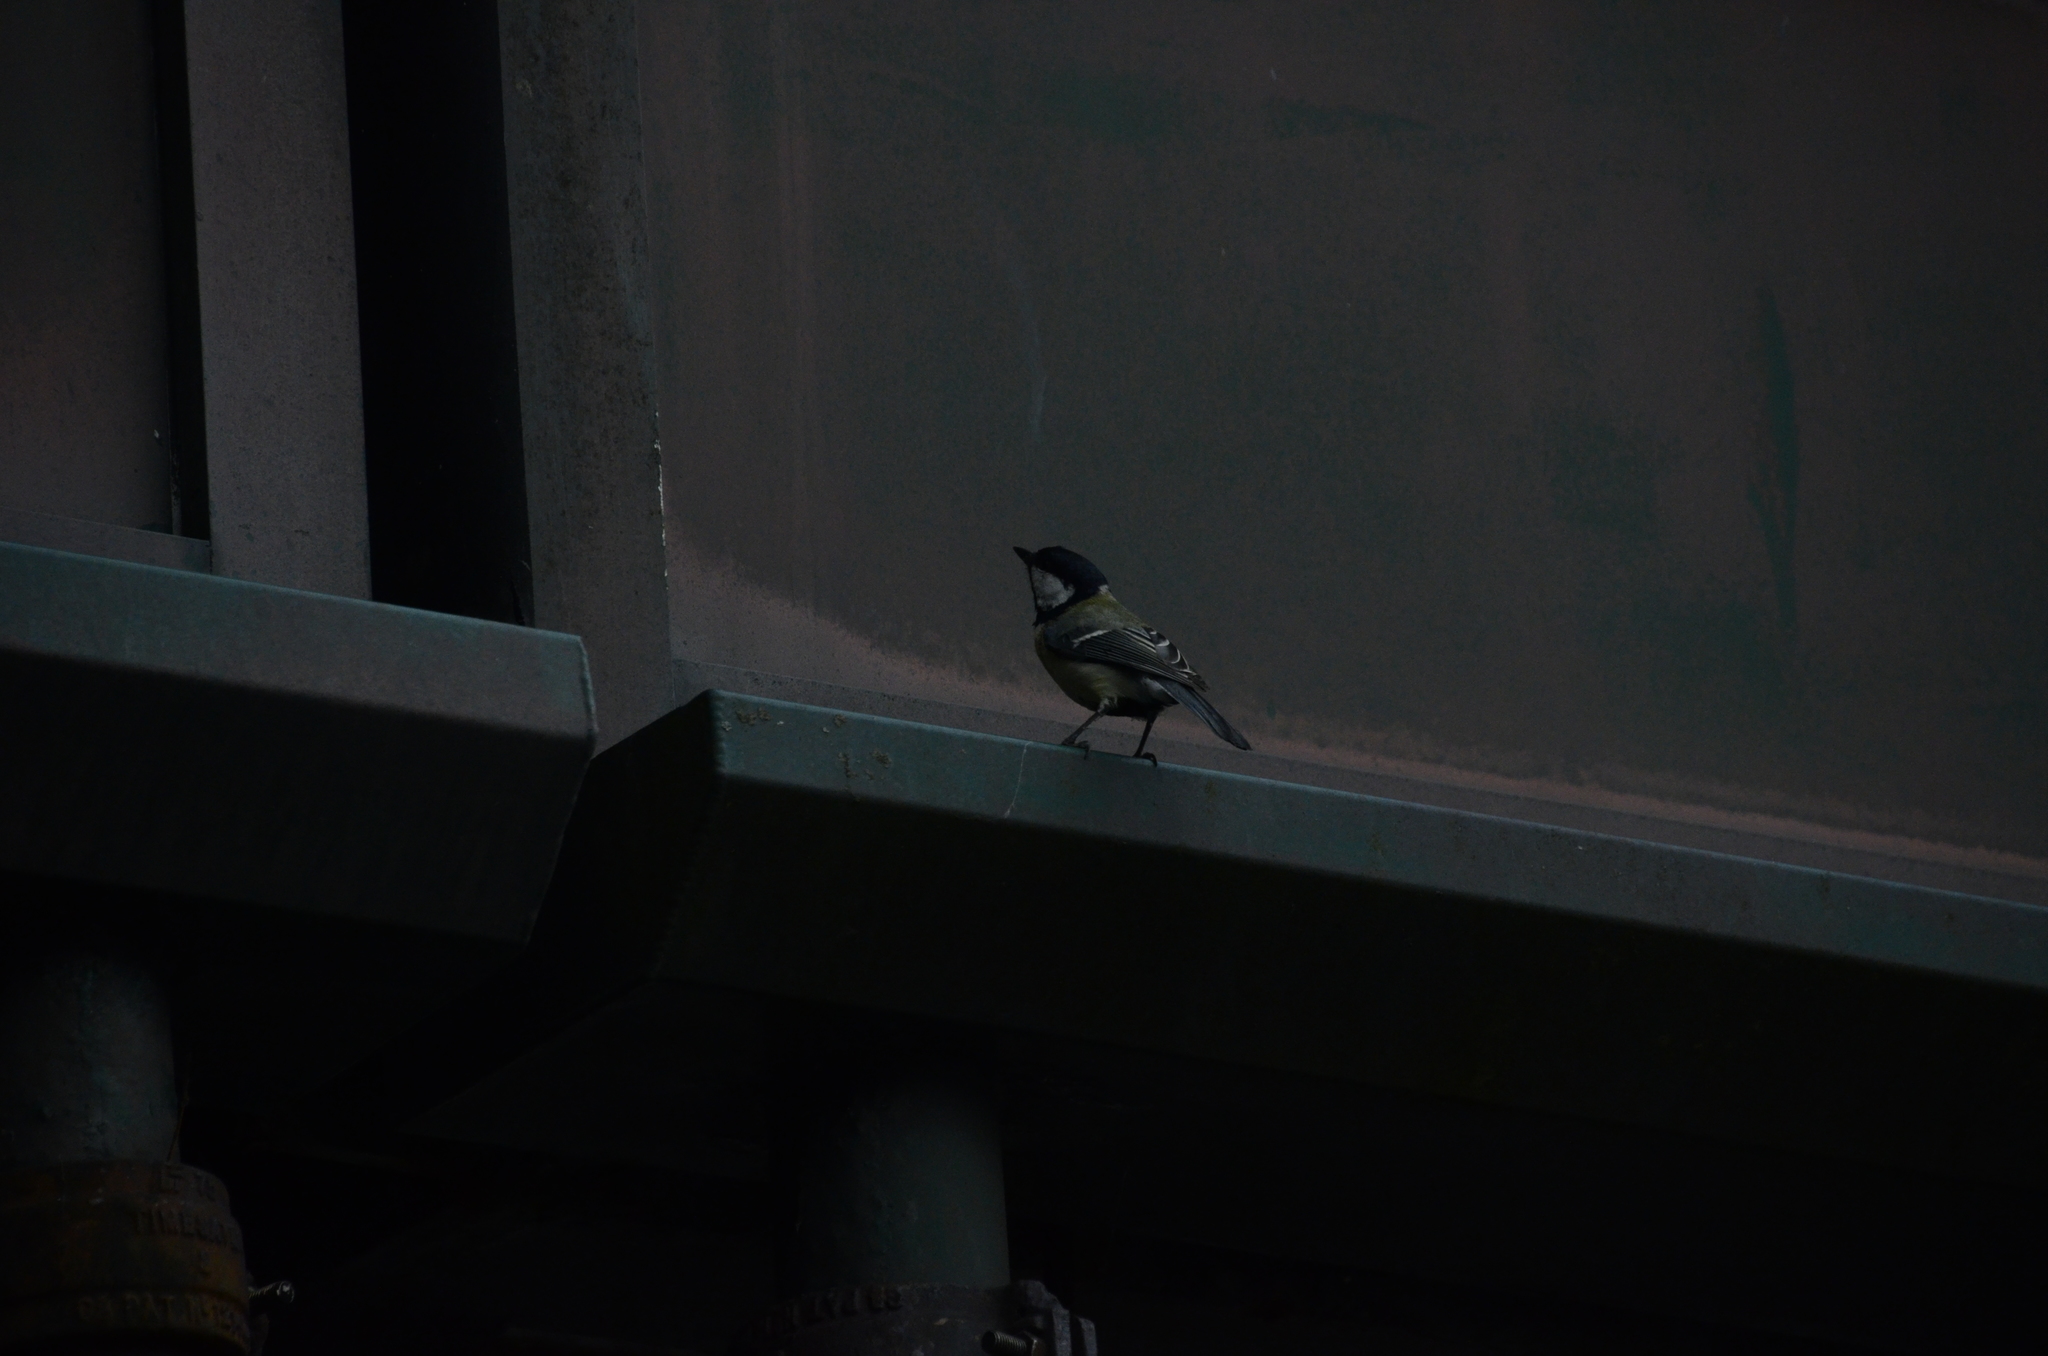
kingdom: Animalia
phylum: Chordata
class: Aves
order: Passeriformes
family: Paridae
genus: Parus
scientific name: Parus major
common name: Great tit
